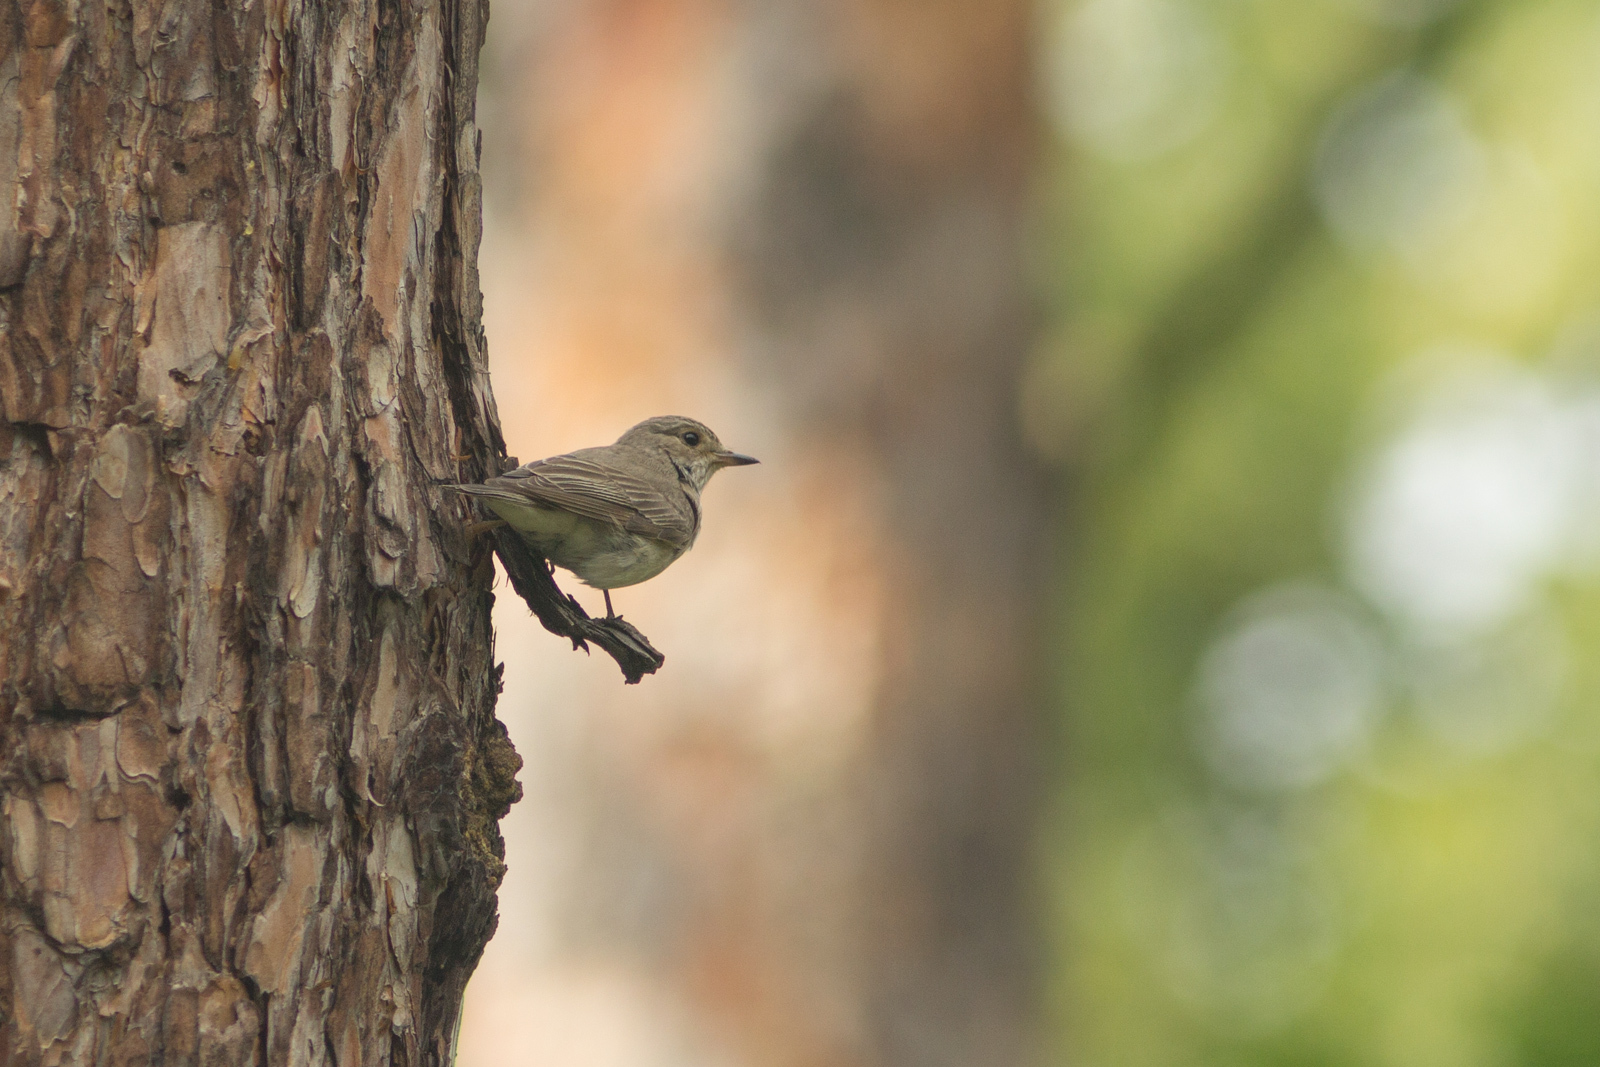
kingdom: Animalia
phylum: Chordata
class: Aves
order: Passeriformes
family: Muscicapidae
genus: Muscicapa
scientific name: Muscicapa striata
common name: Spotted flycatcher
